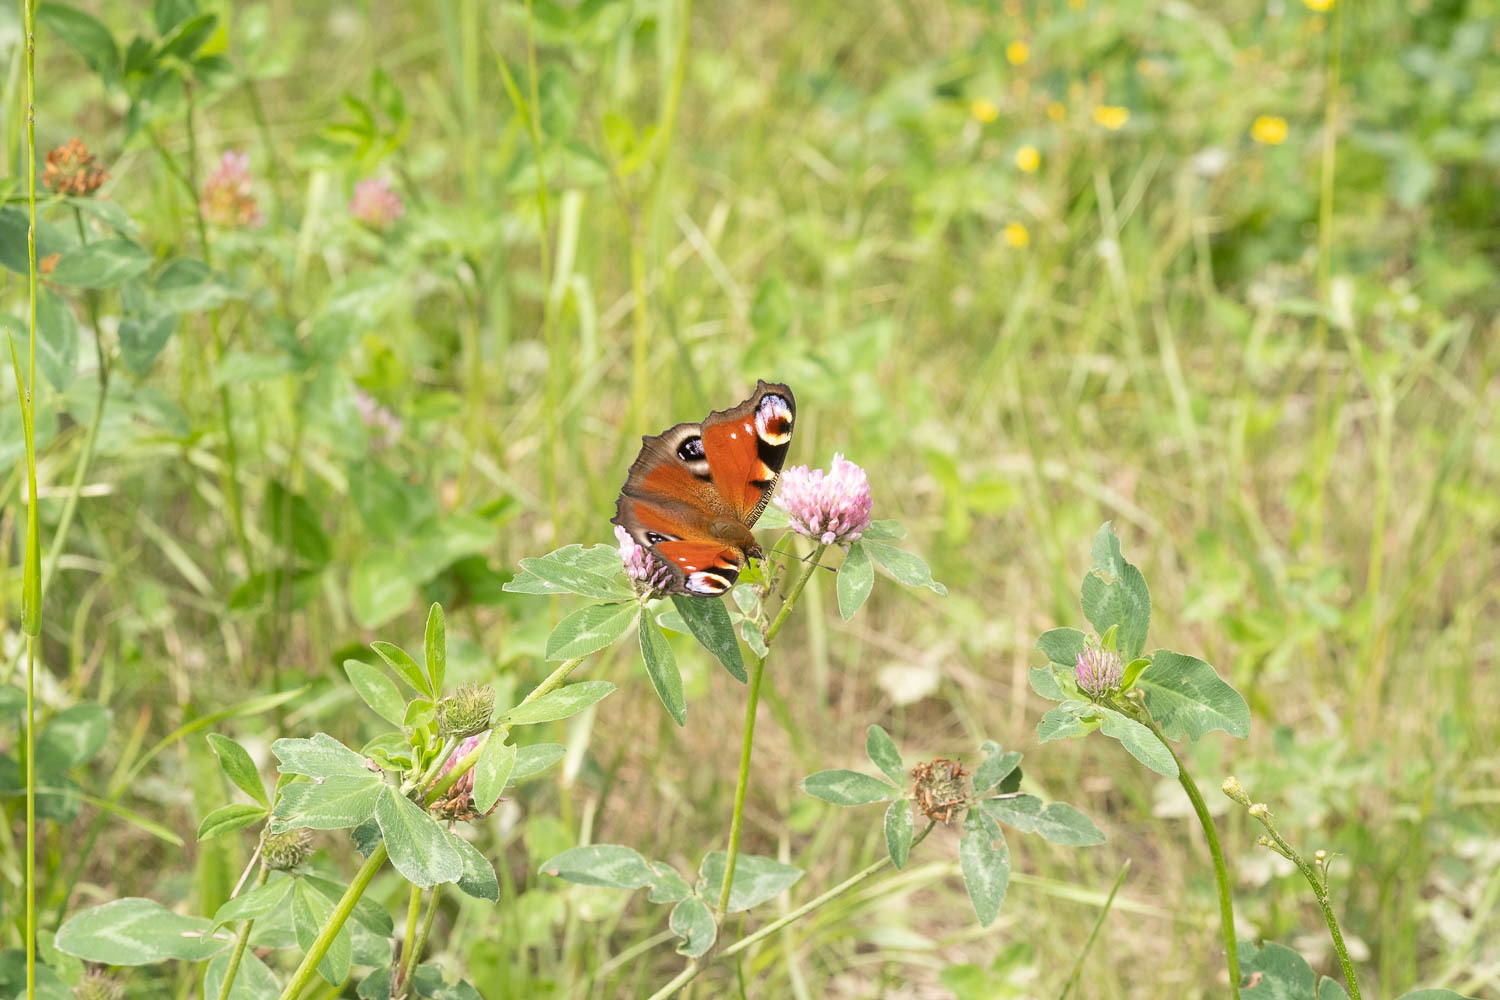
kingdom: Animalia
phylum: Arthropoda
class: Insecta
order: Lepidoptera
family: Nymphalidae
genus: Aglais
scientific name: Aglais io
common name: Peacock
